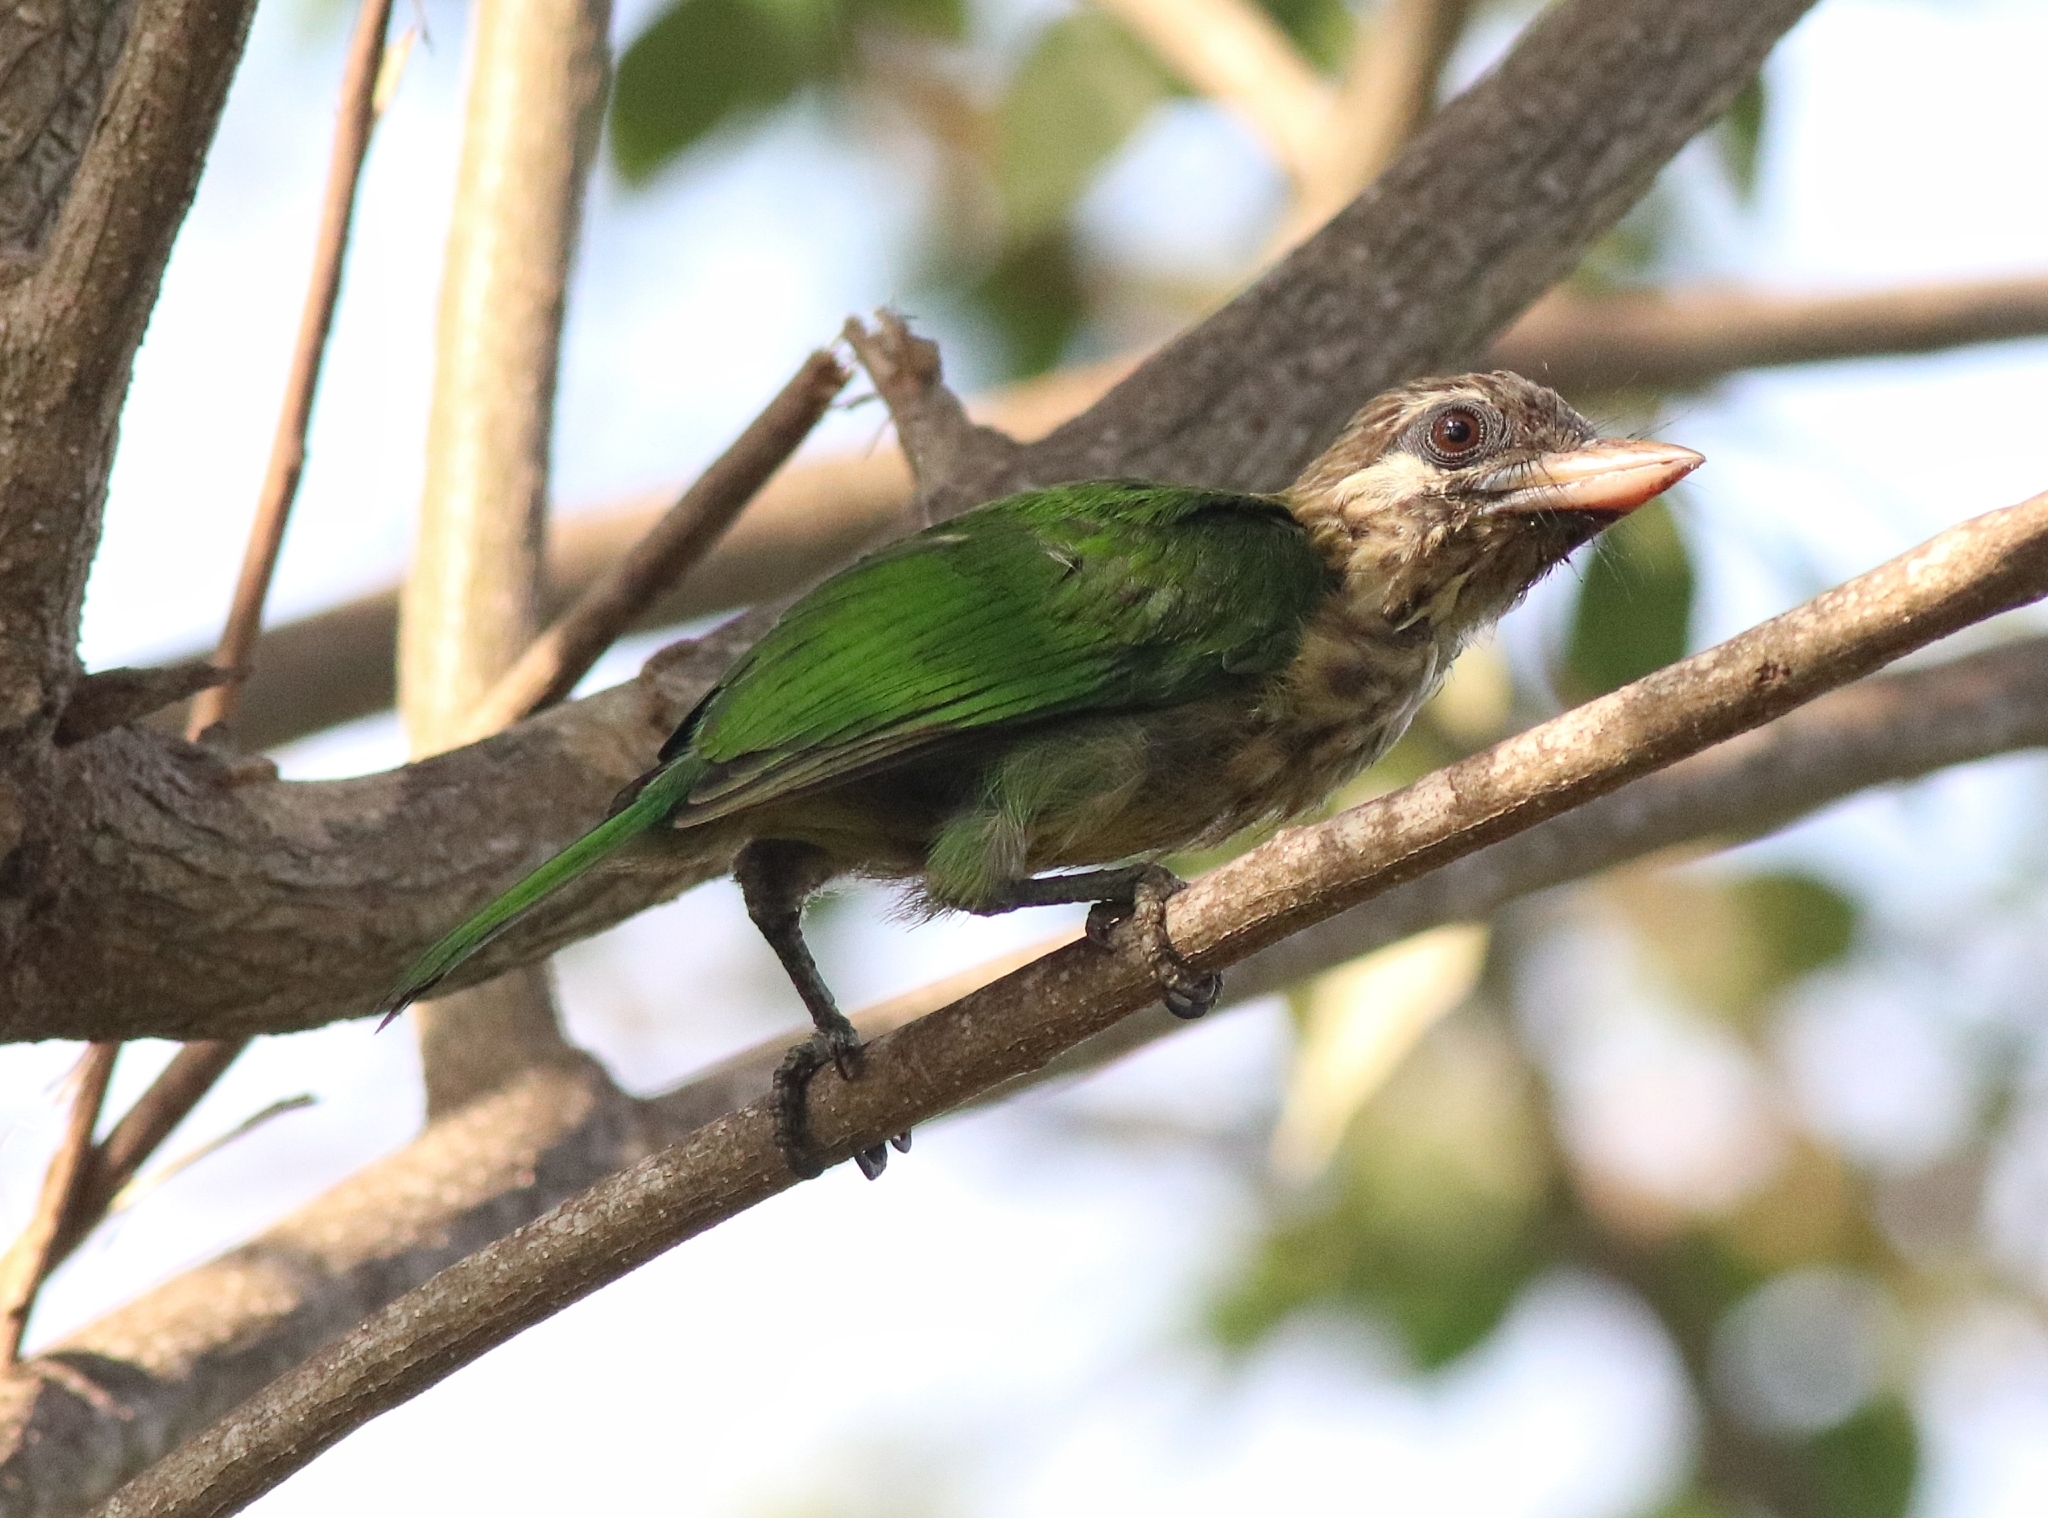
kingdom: Animalia
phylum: Chordata
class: Aves
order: Piciformes
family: Megalaimidae
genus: Psilopogon
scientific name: Psilopogon viridis
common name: White-cheeked barbet
